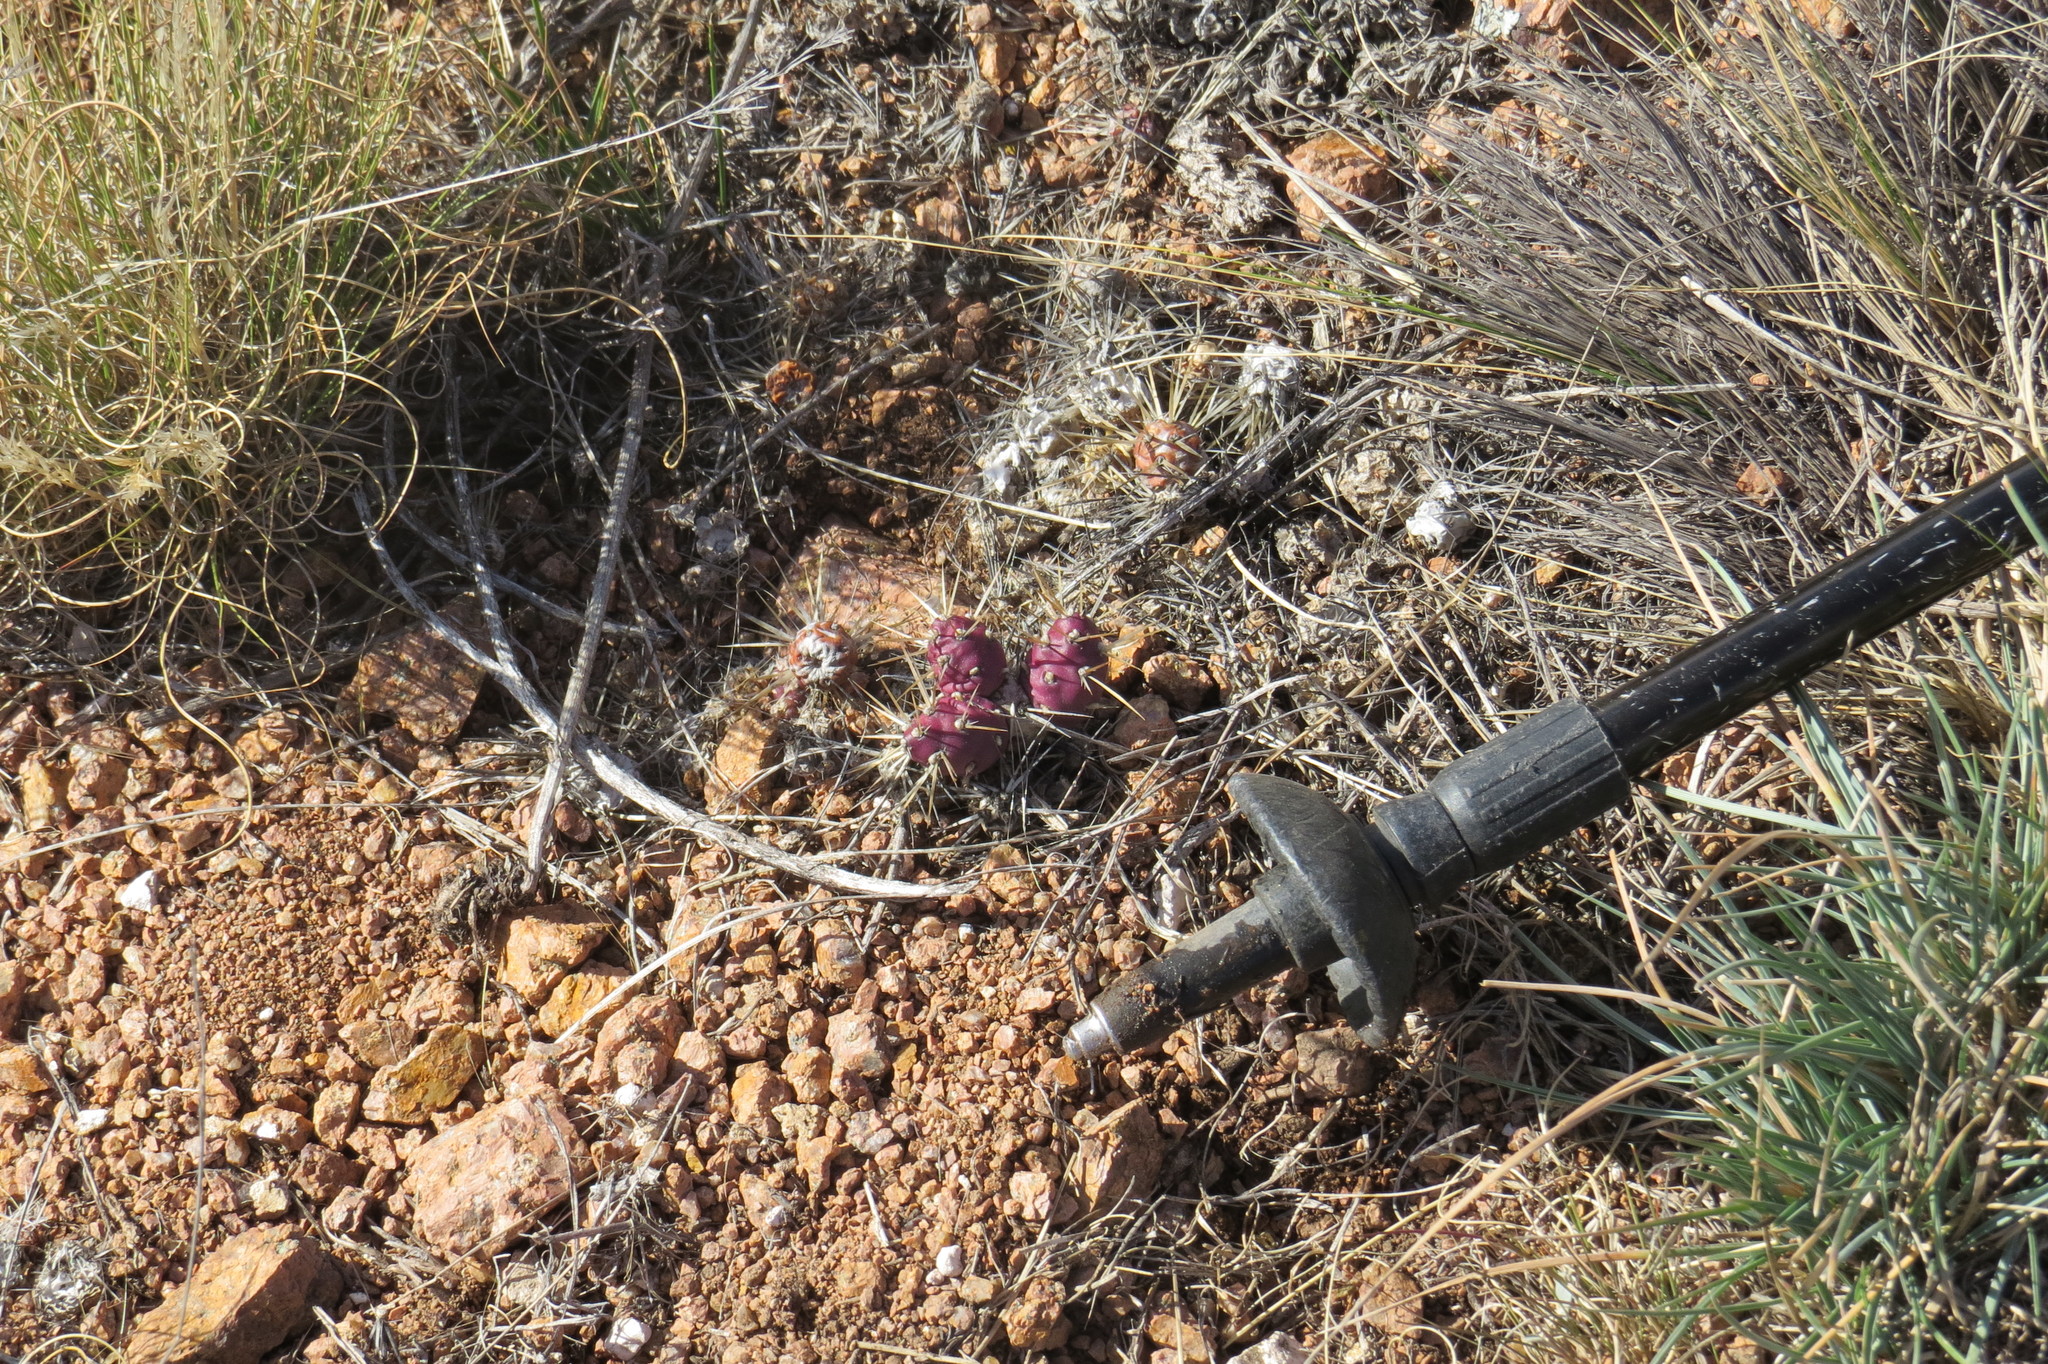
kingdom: Plantae
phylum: Tracheophyta
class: Magnoliopsida
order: Caryophyllales
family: Cactaceae
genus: Maihueniopsis
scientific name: Maihueniopsis ovata
